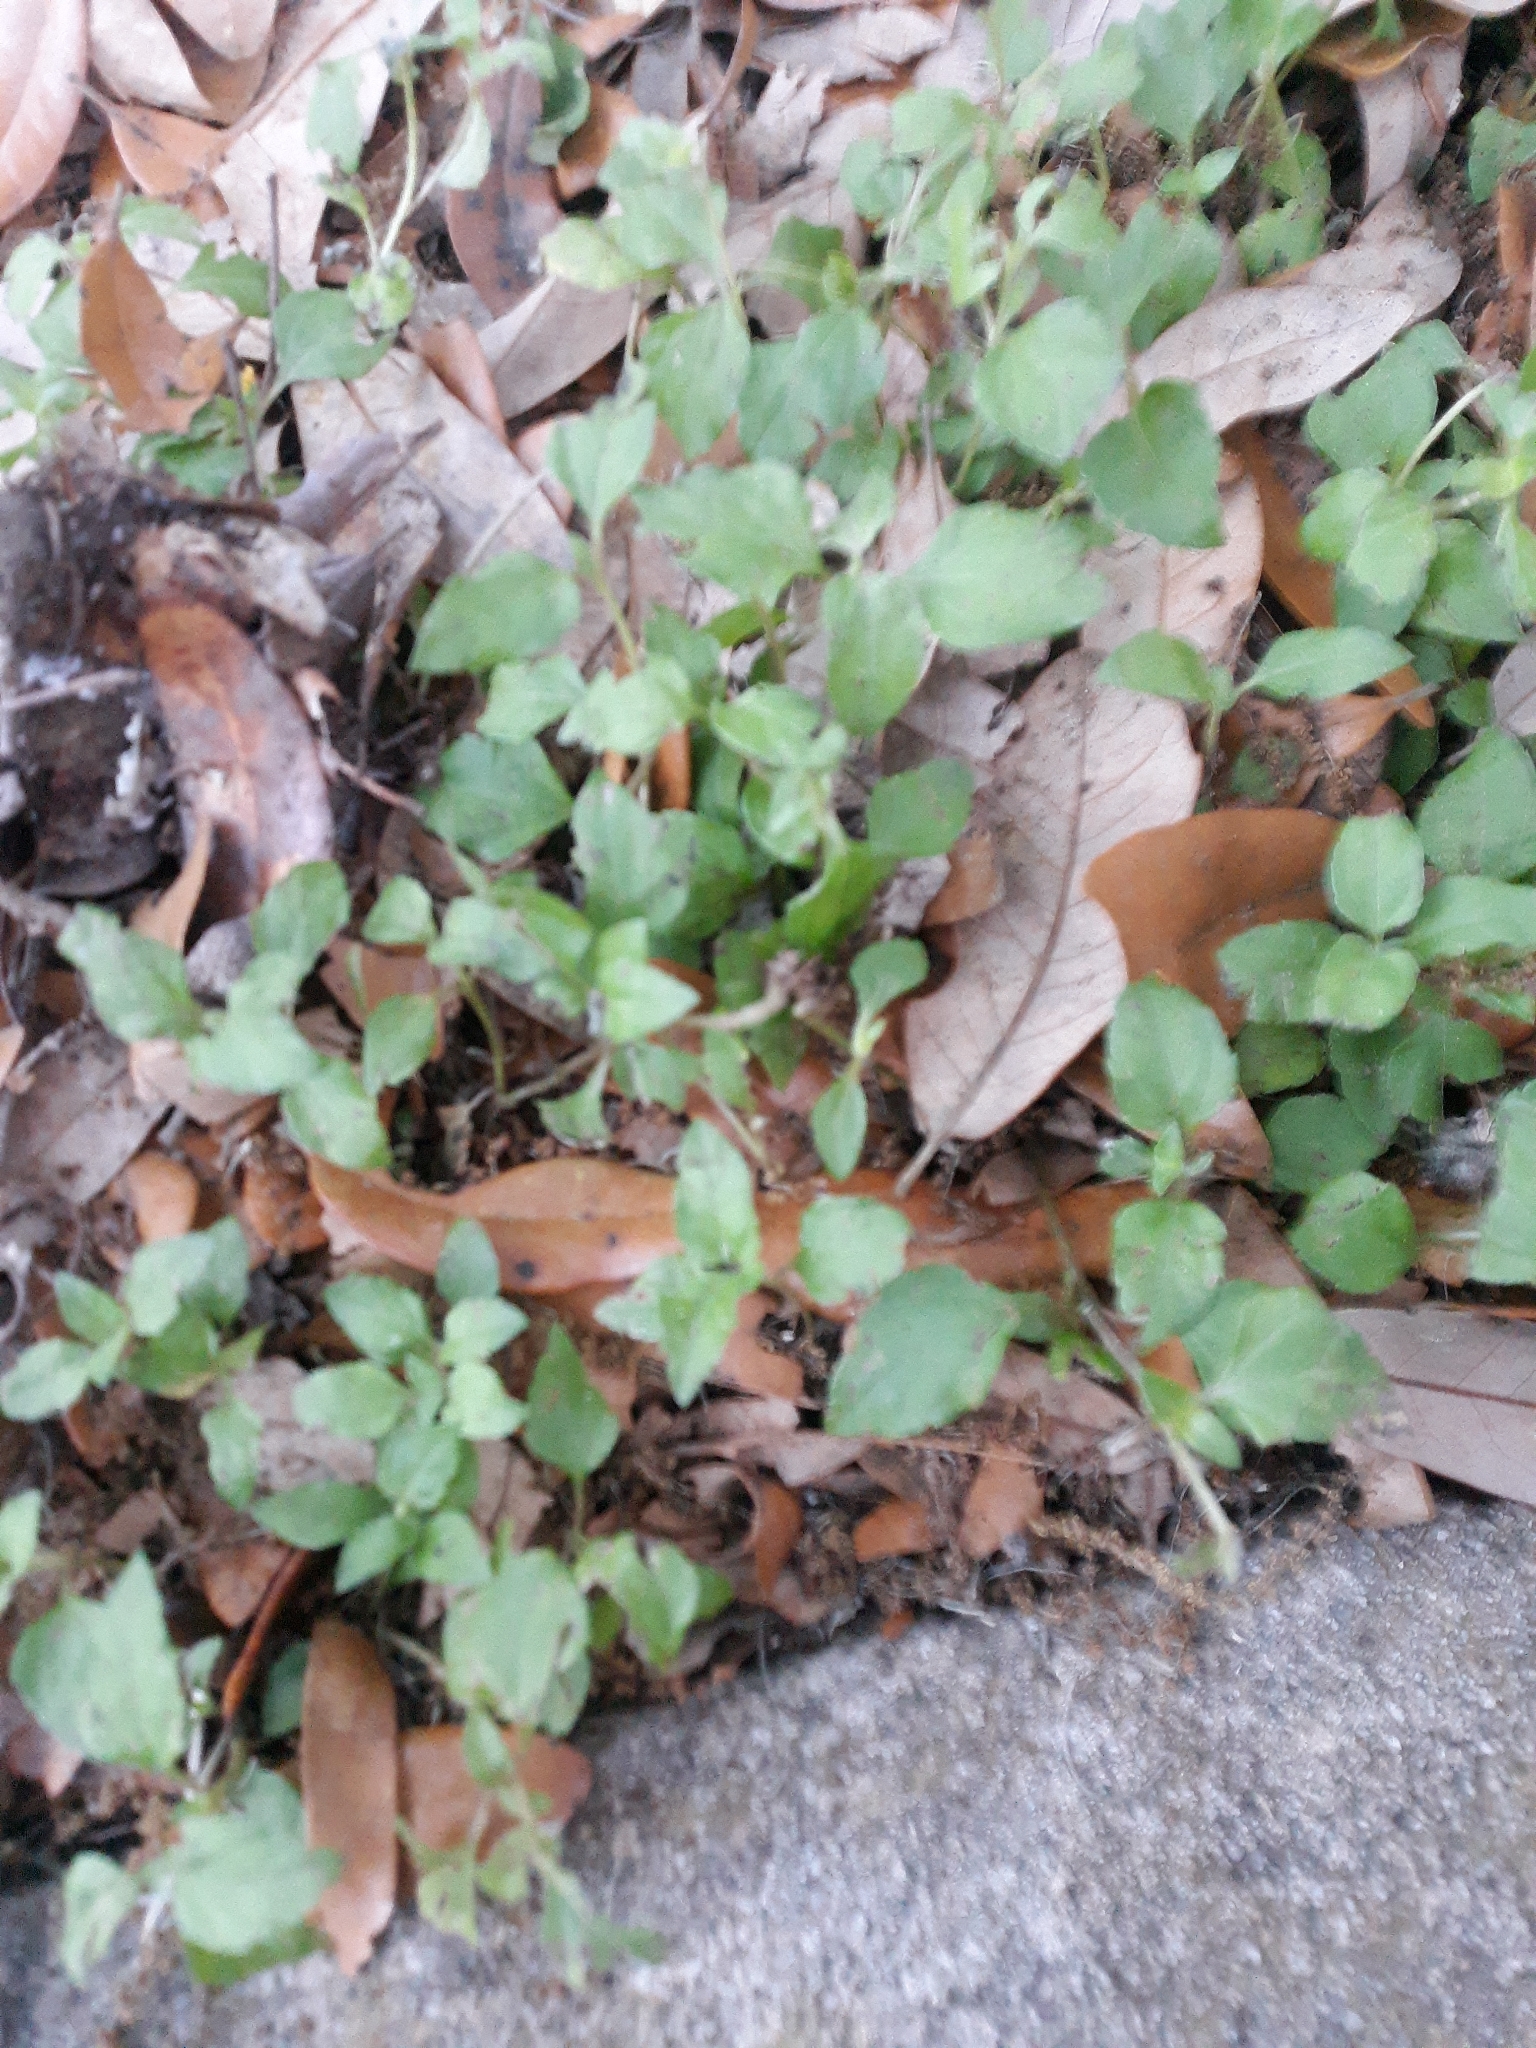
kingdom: Plantae
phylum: Tracheophyta
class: Magnoliopsida
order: Asterales
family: Asteraceae
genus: Calyptocarpus
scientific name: Calyptocarpus vialis
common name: Straggler daisy
